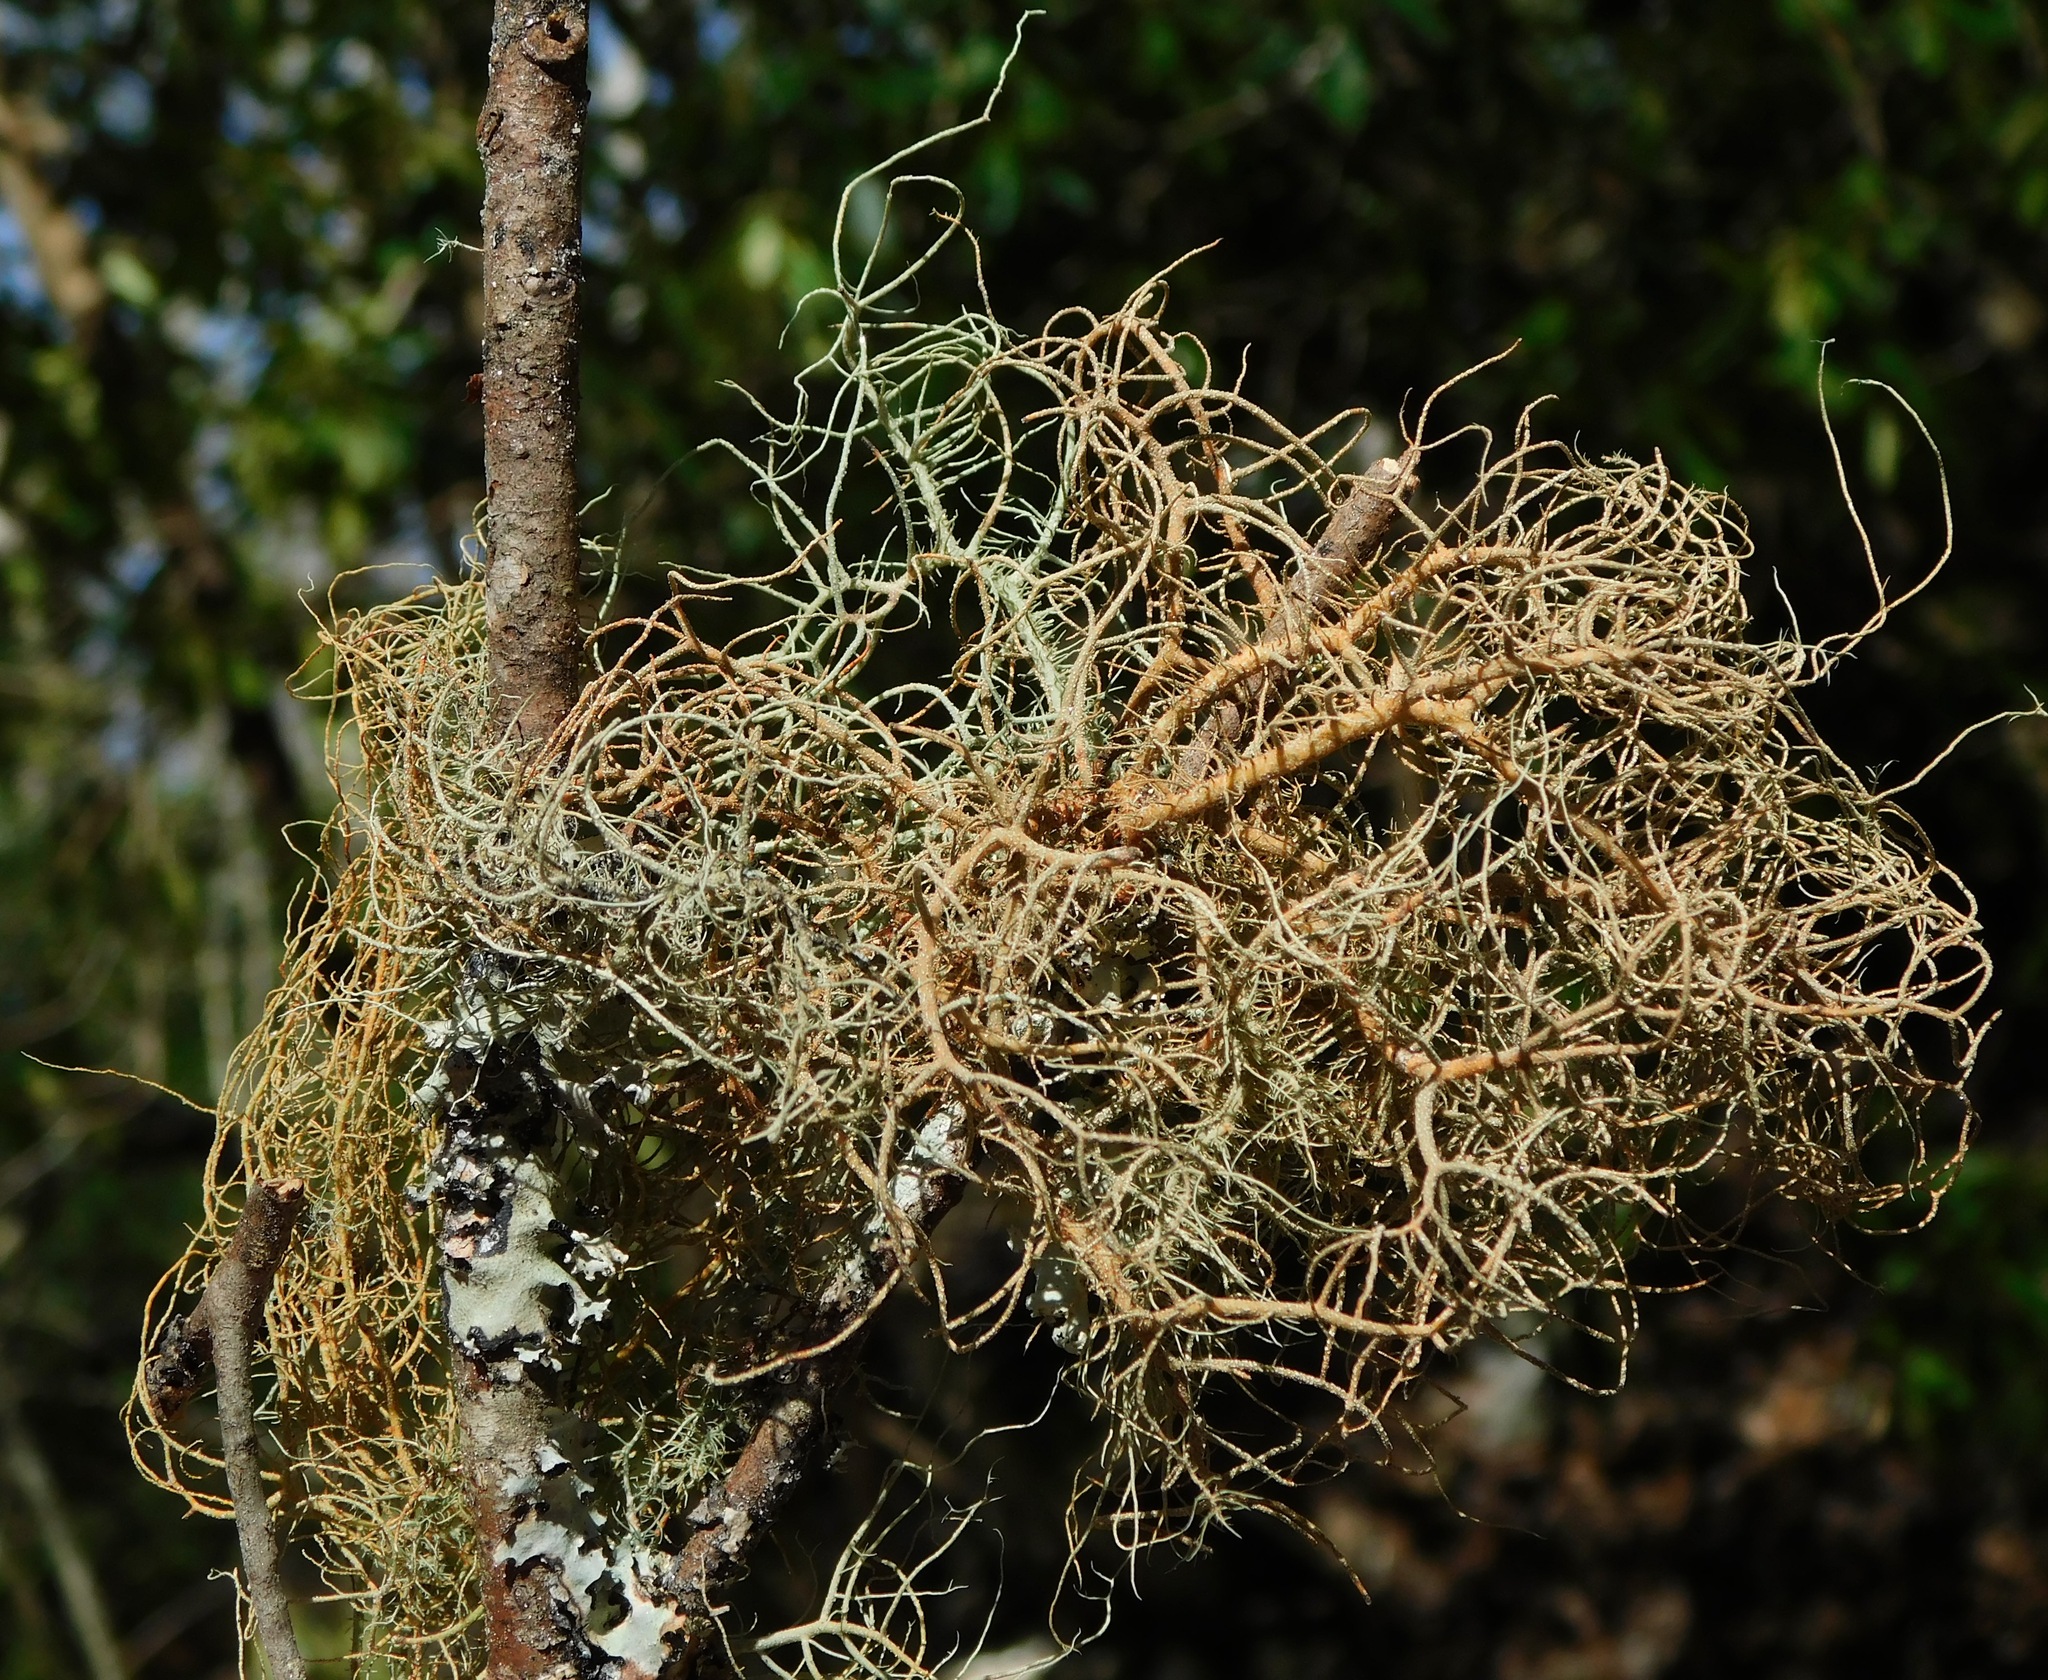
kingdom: Fungi
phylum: Ascomycota
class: Lecanoromycetes
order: Lecanorales
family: Parmeliaceae
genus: Usnea
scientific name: Usnea rubicunda
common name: Red beard lichen
